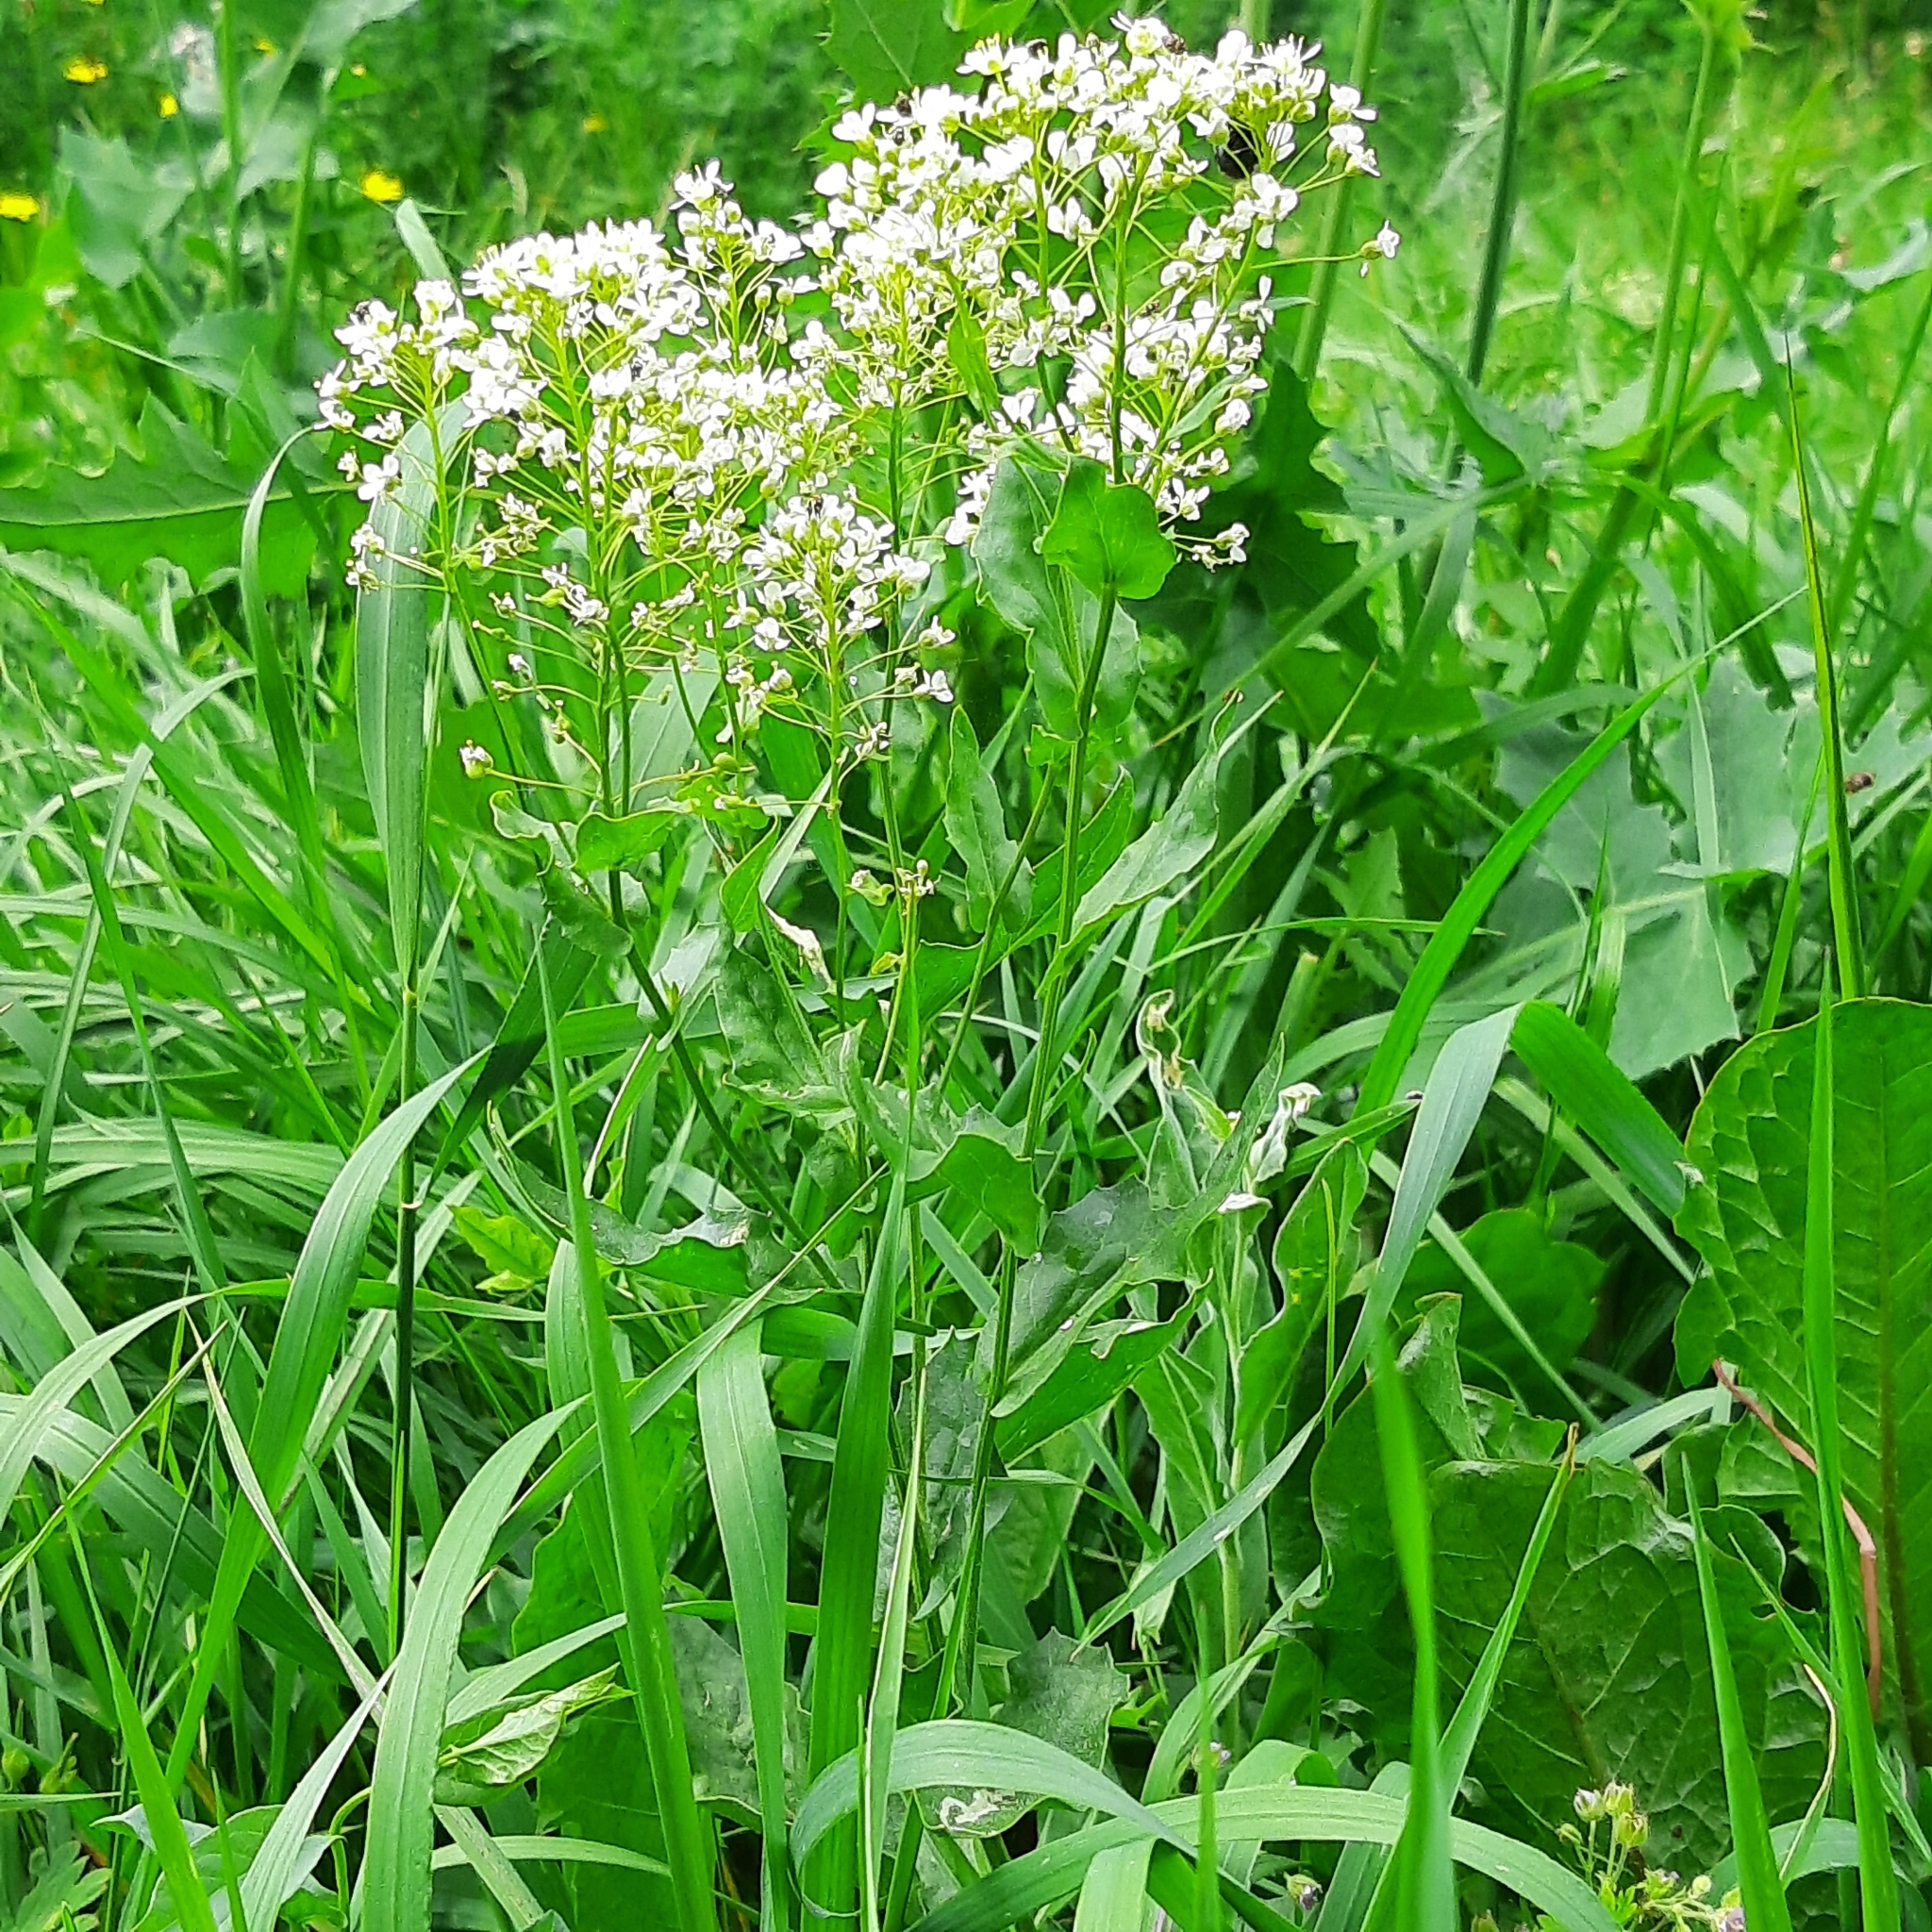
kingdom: Plantae
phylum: Tracheophyta
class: Magnoliopsida
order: Brassicales
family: Brassicaceae
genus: Lepidium
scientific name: Lepidium draba
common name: Hoary cress
